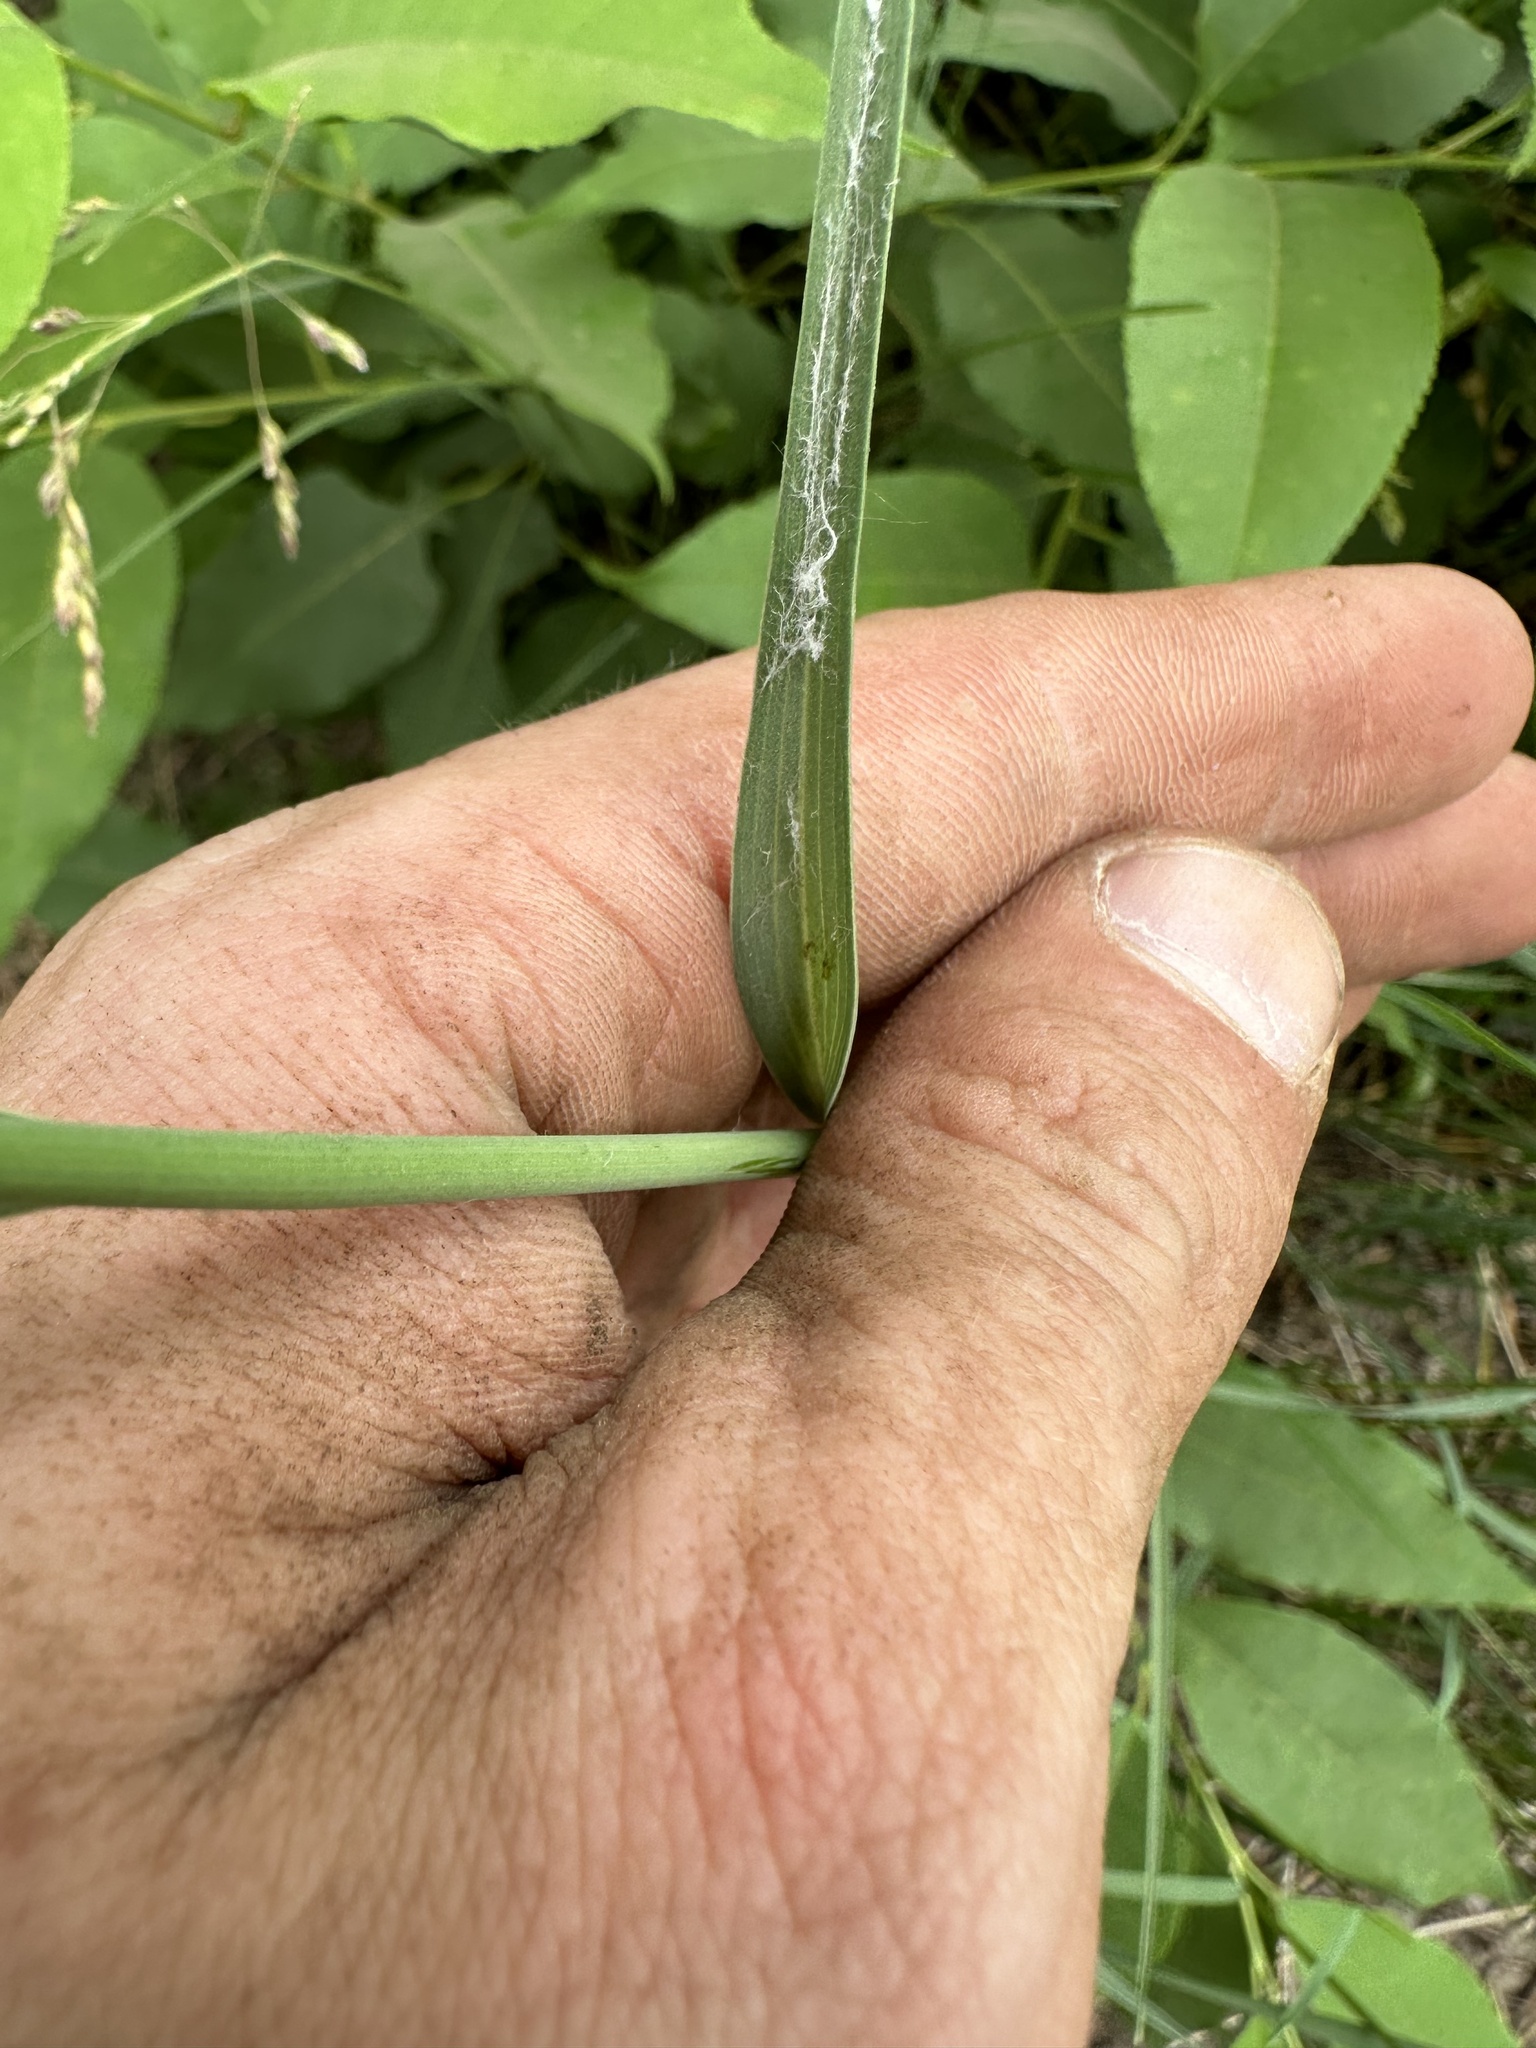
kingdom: Plantae
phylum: Tracheophyta
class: Magnoliopsida
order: Asterales
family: Asteraceae
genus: Tragopogon
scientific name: Tragopogon dubius
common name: Yellow salsify
